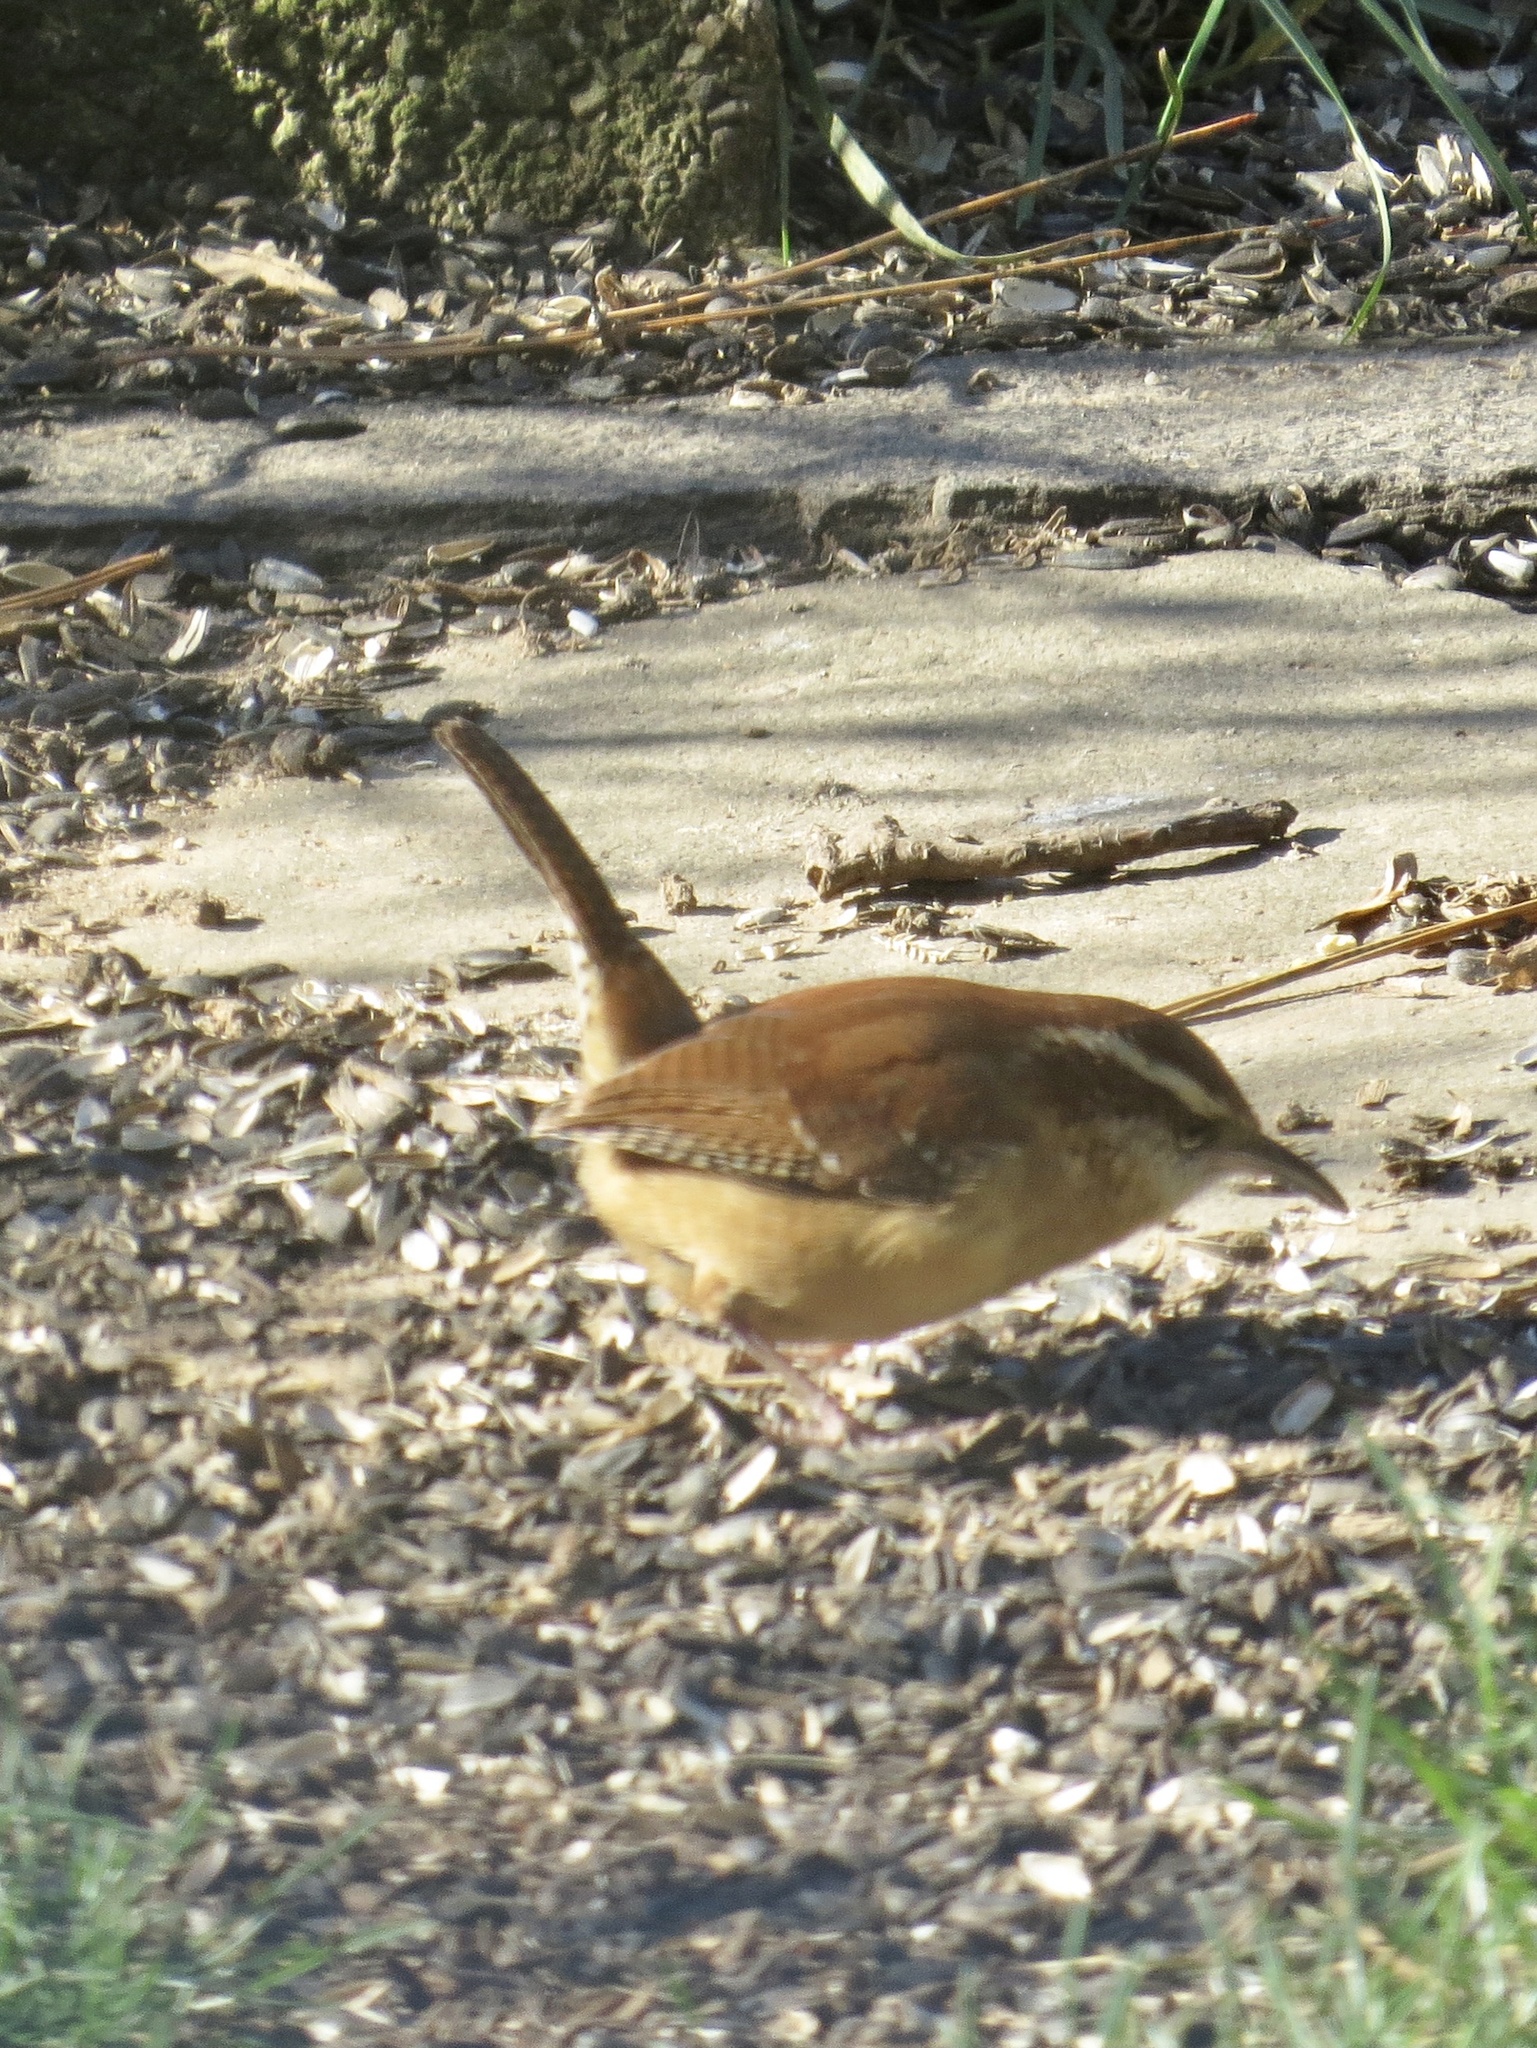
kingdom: Animalia
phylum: Chordata
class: Aves
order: Passeriformes
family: Troglodytidae
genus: Thryothorus
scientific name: Thryothorus ludovicianus
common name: Carolina wren
